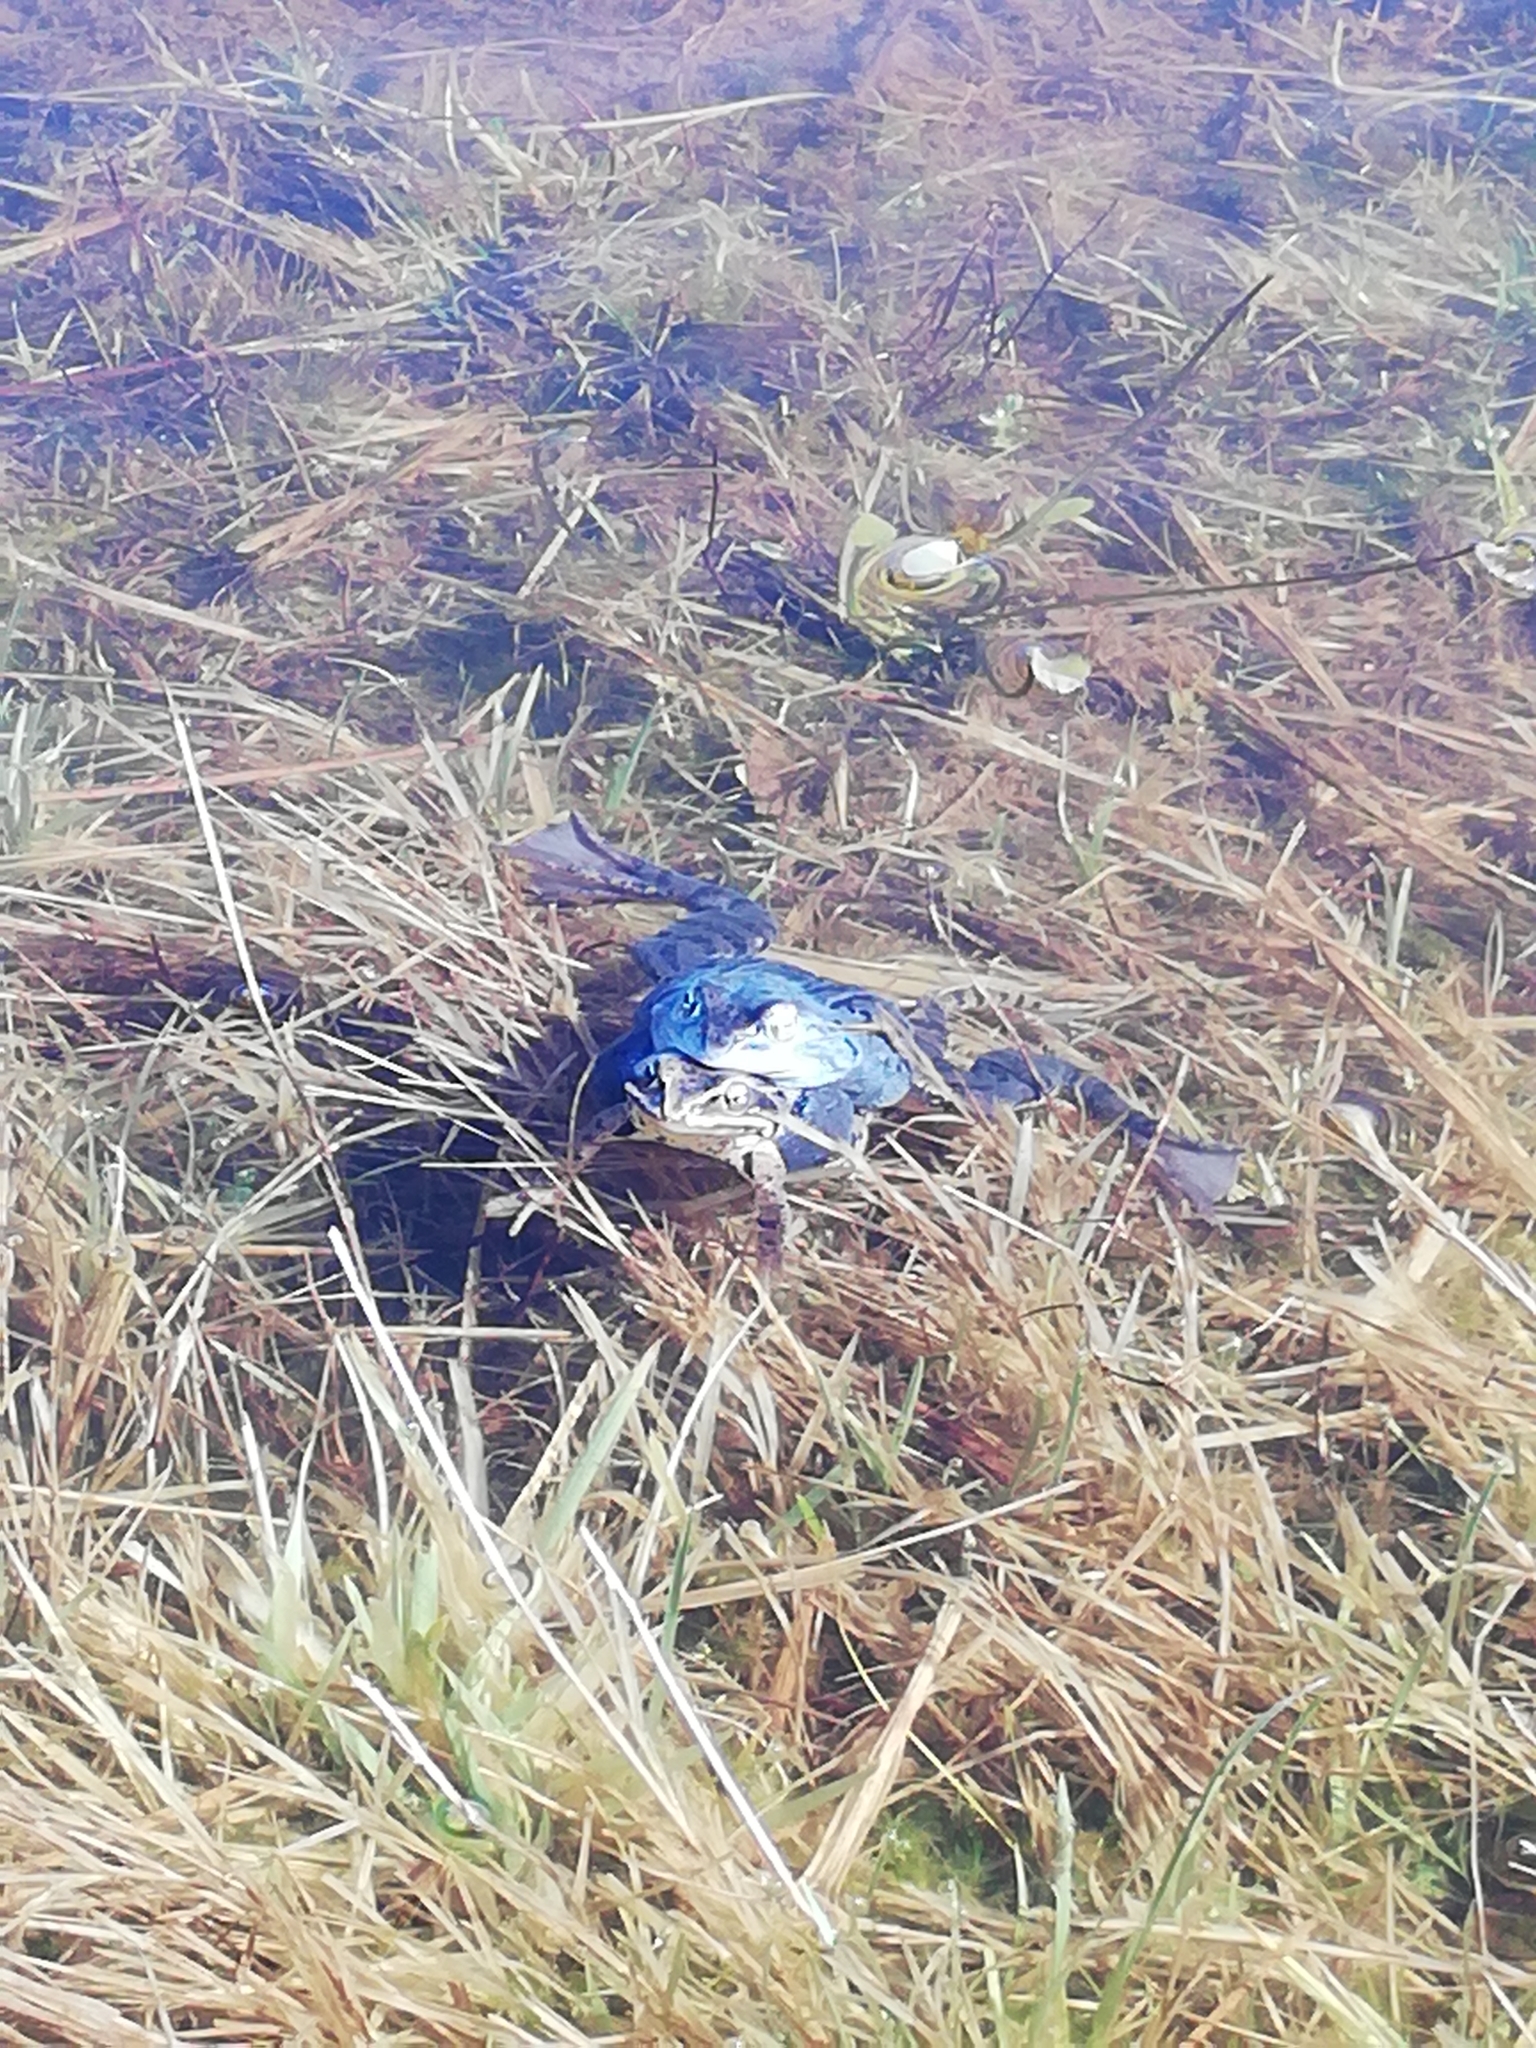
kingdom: Animalia
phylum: Chordata
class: Amphibia
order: Anura
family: Ranidae
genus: Rana
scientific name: Rana arvalis
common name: Moor frog
